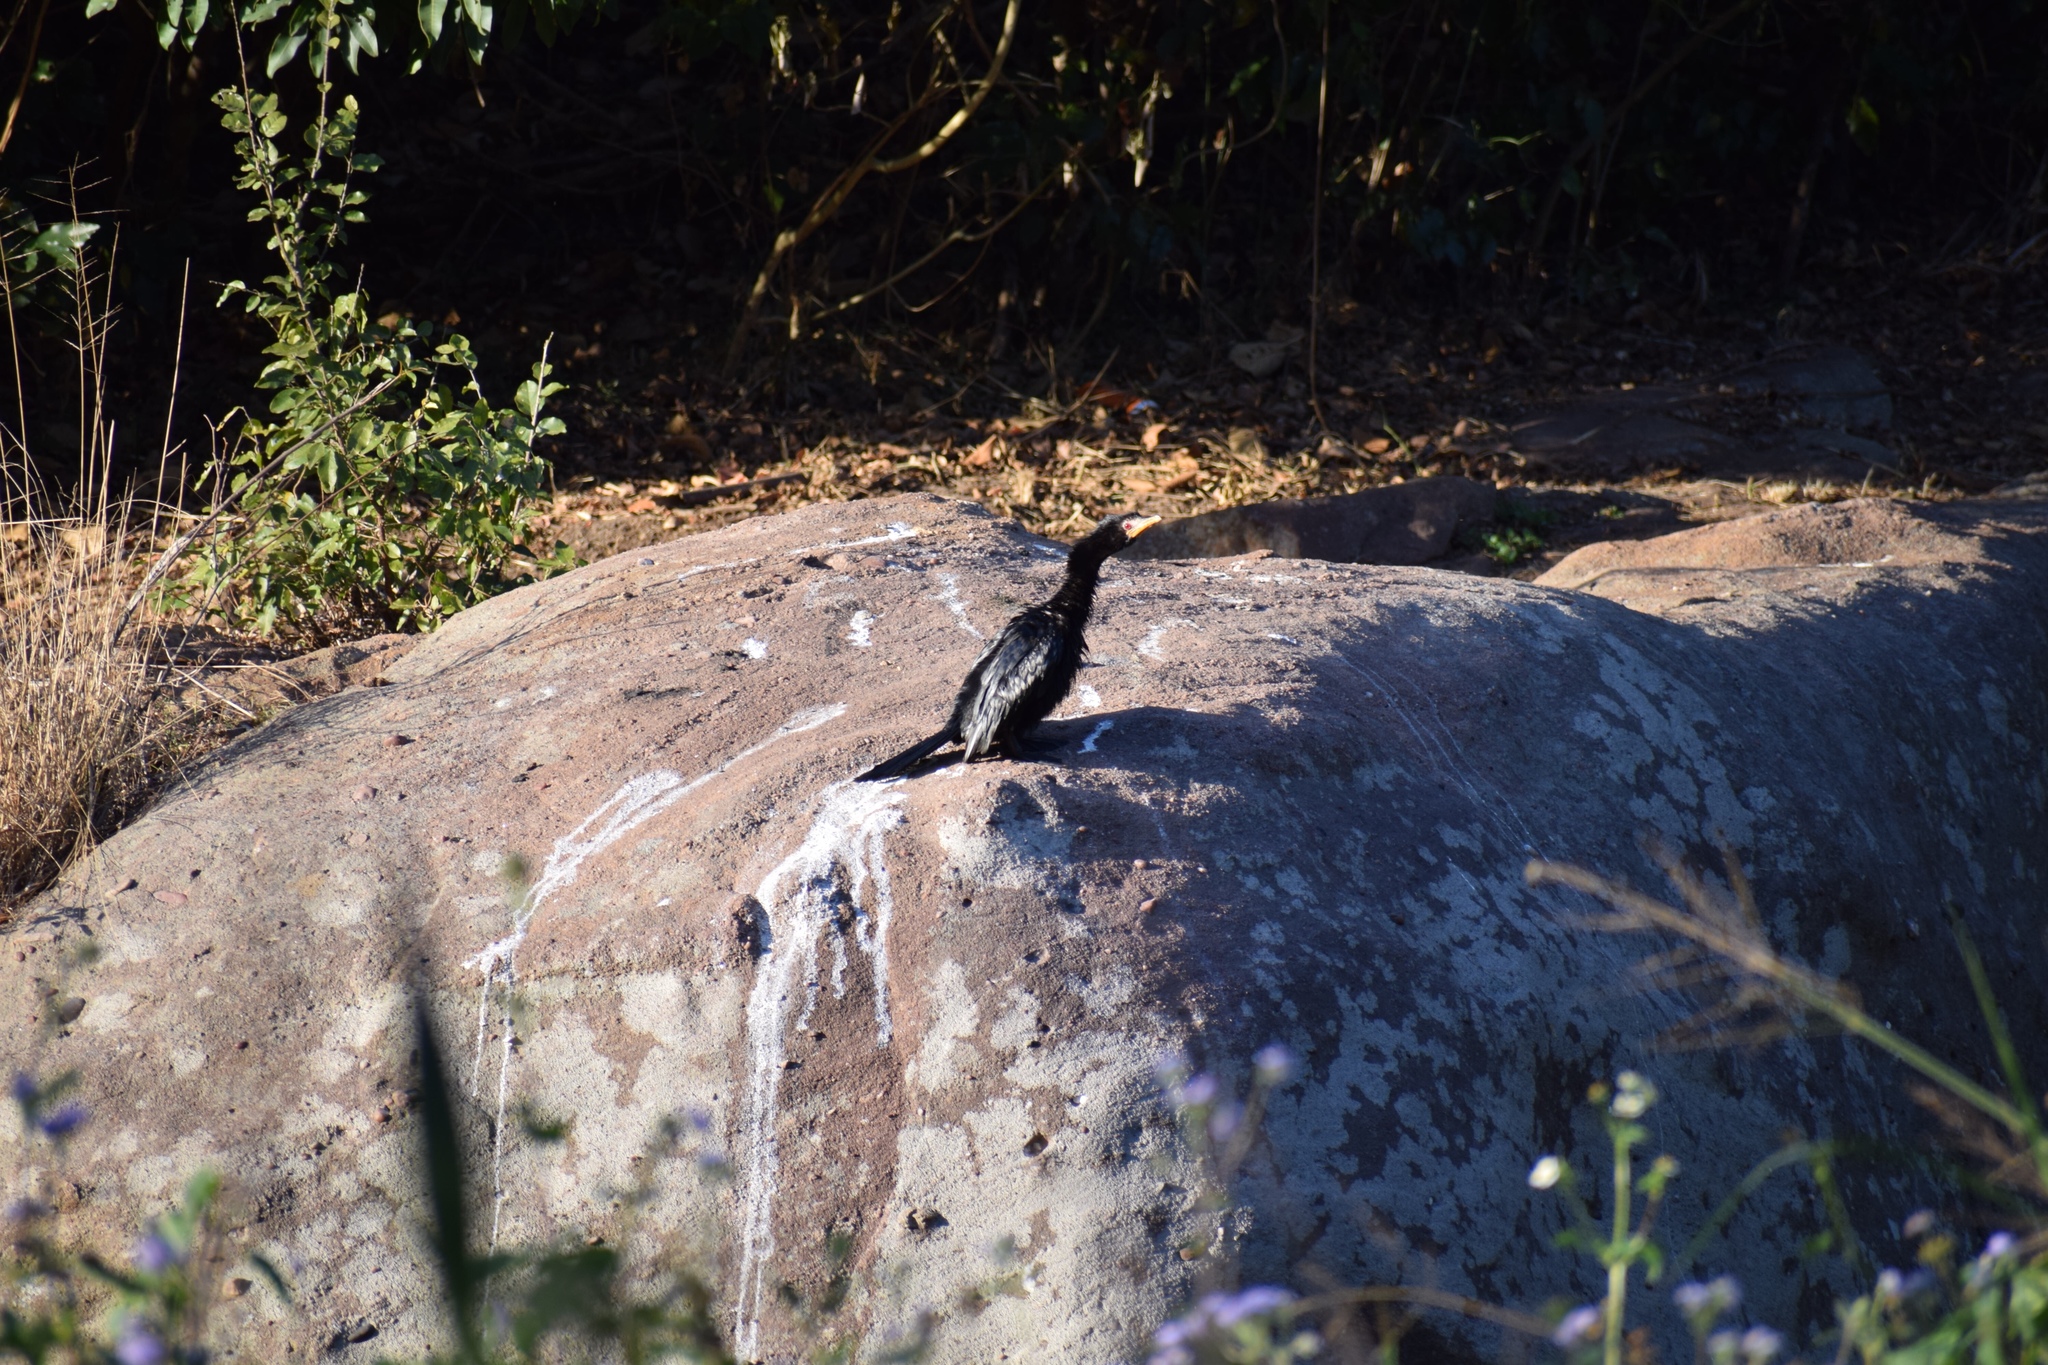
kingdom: Animalia
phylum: Chordata
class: Aves
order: Suliformes
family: Phalacrocoracidae
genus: Microcarbo
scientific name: Microcarbo africanus
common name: Long-tailed cormorant
